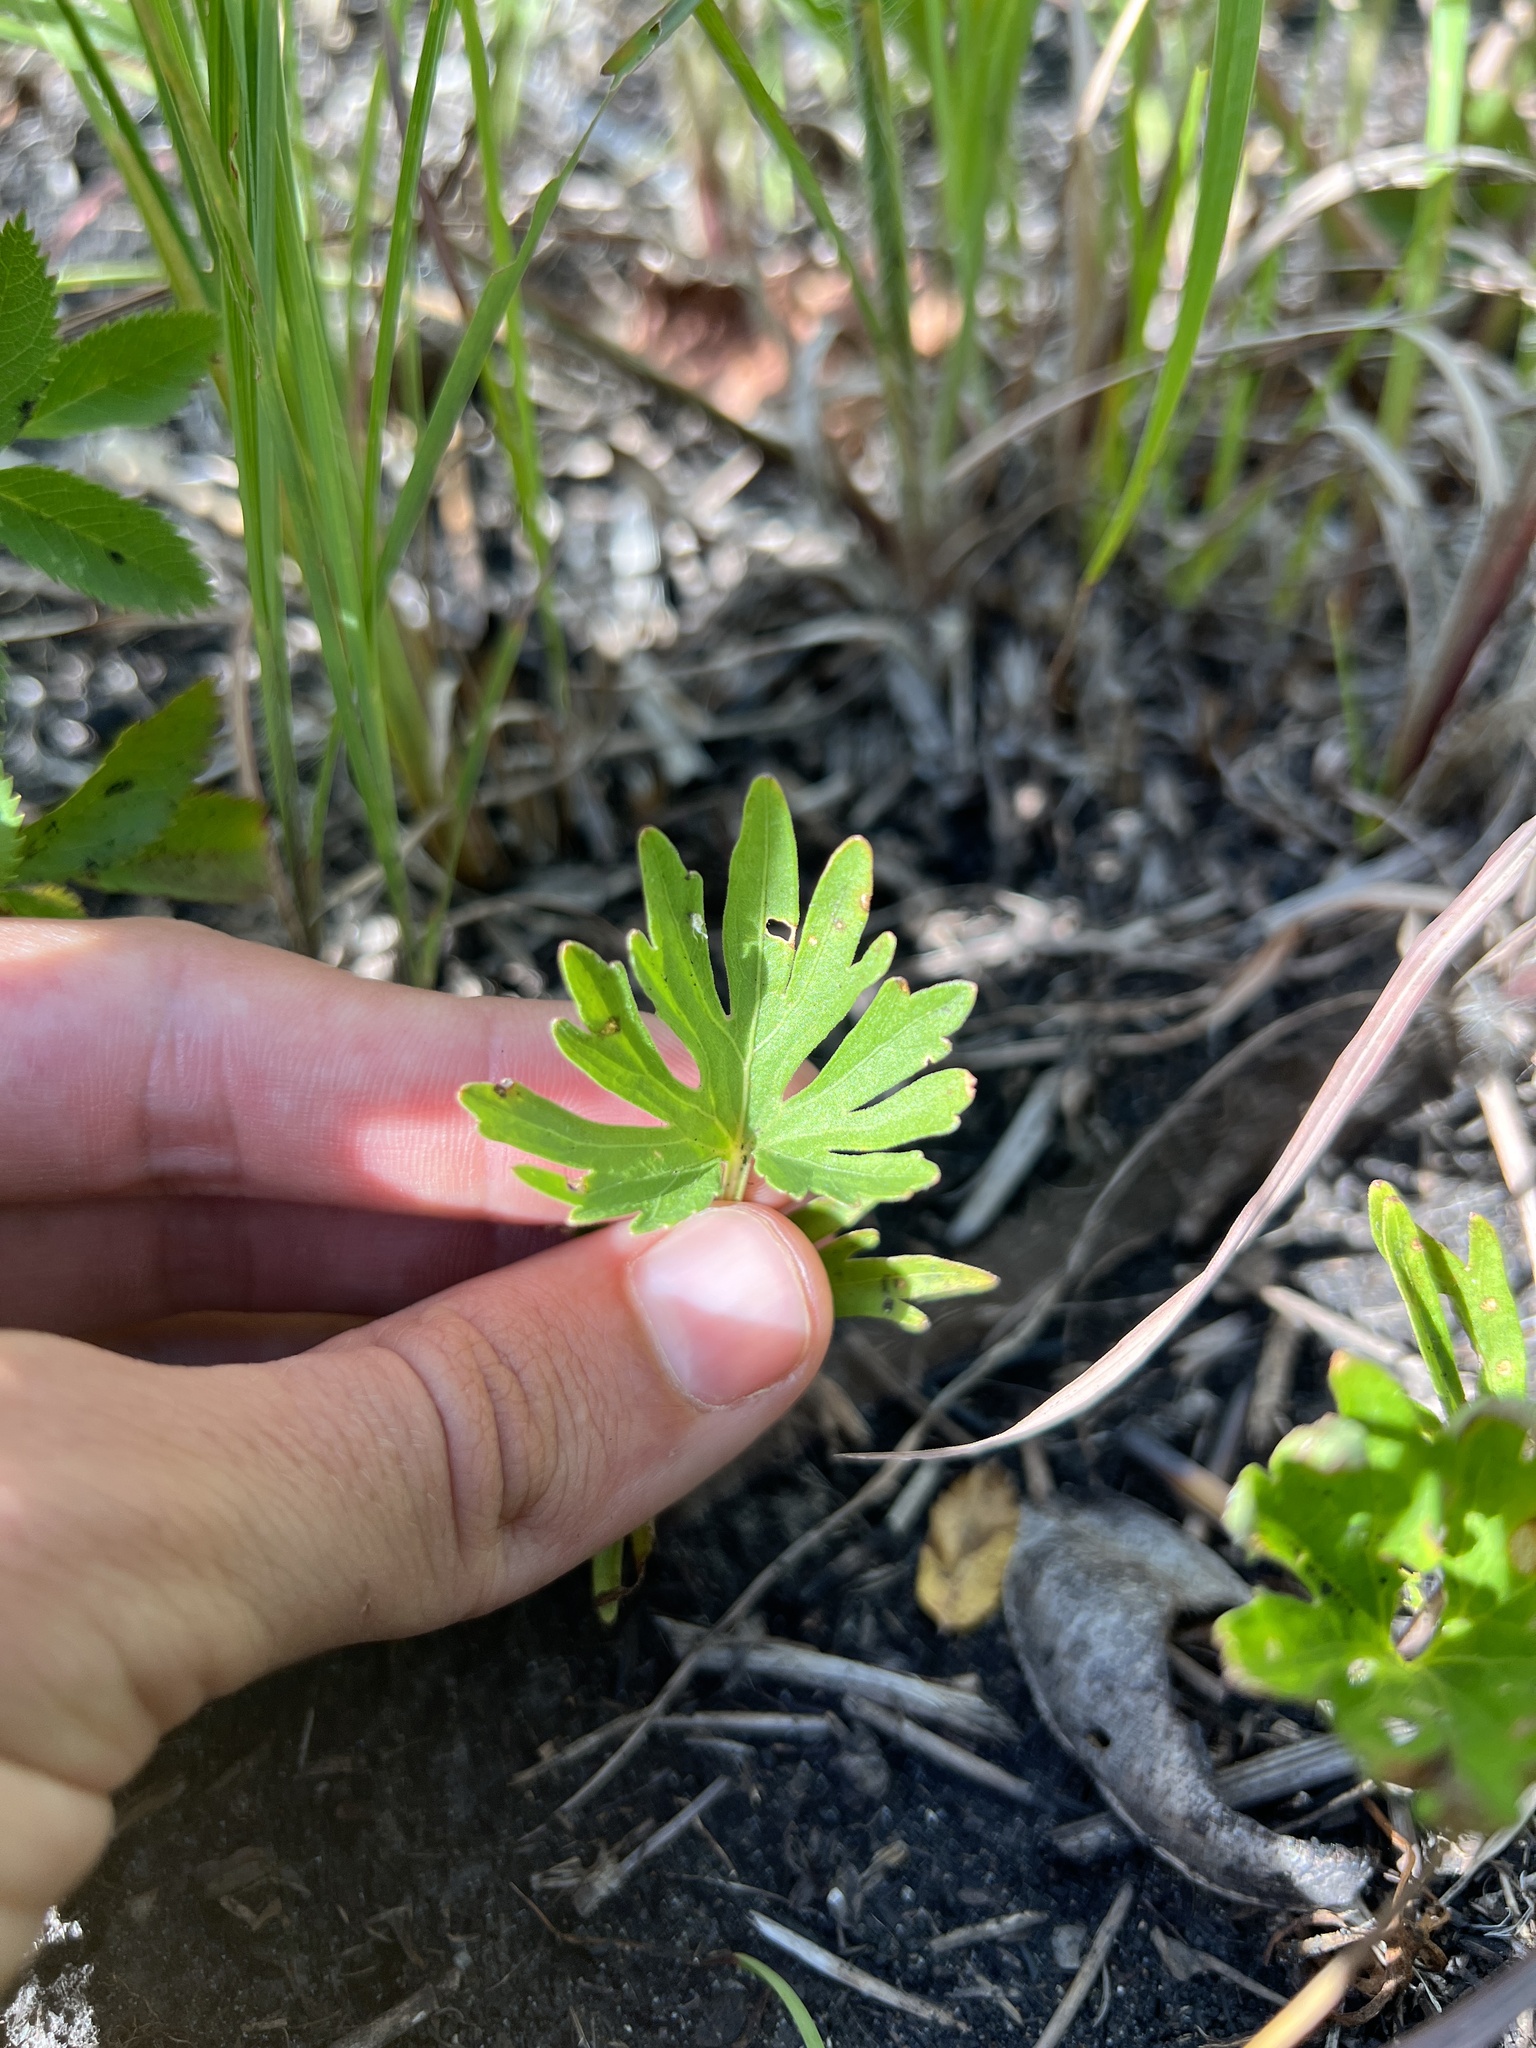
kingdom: Plantae
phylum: Tracheophyta
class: Magnoliopsida
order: Malpighiales
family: Violaceae
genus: Viola
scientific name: Viola pedatifida
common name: Prairie violet
